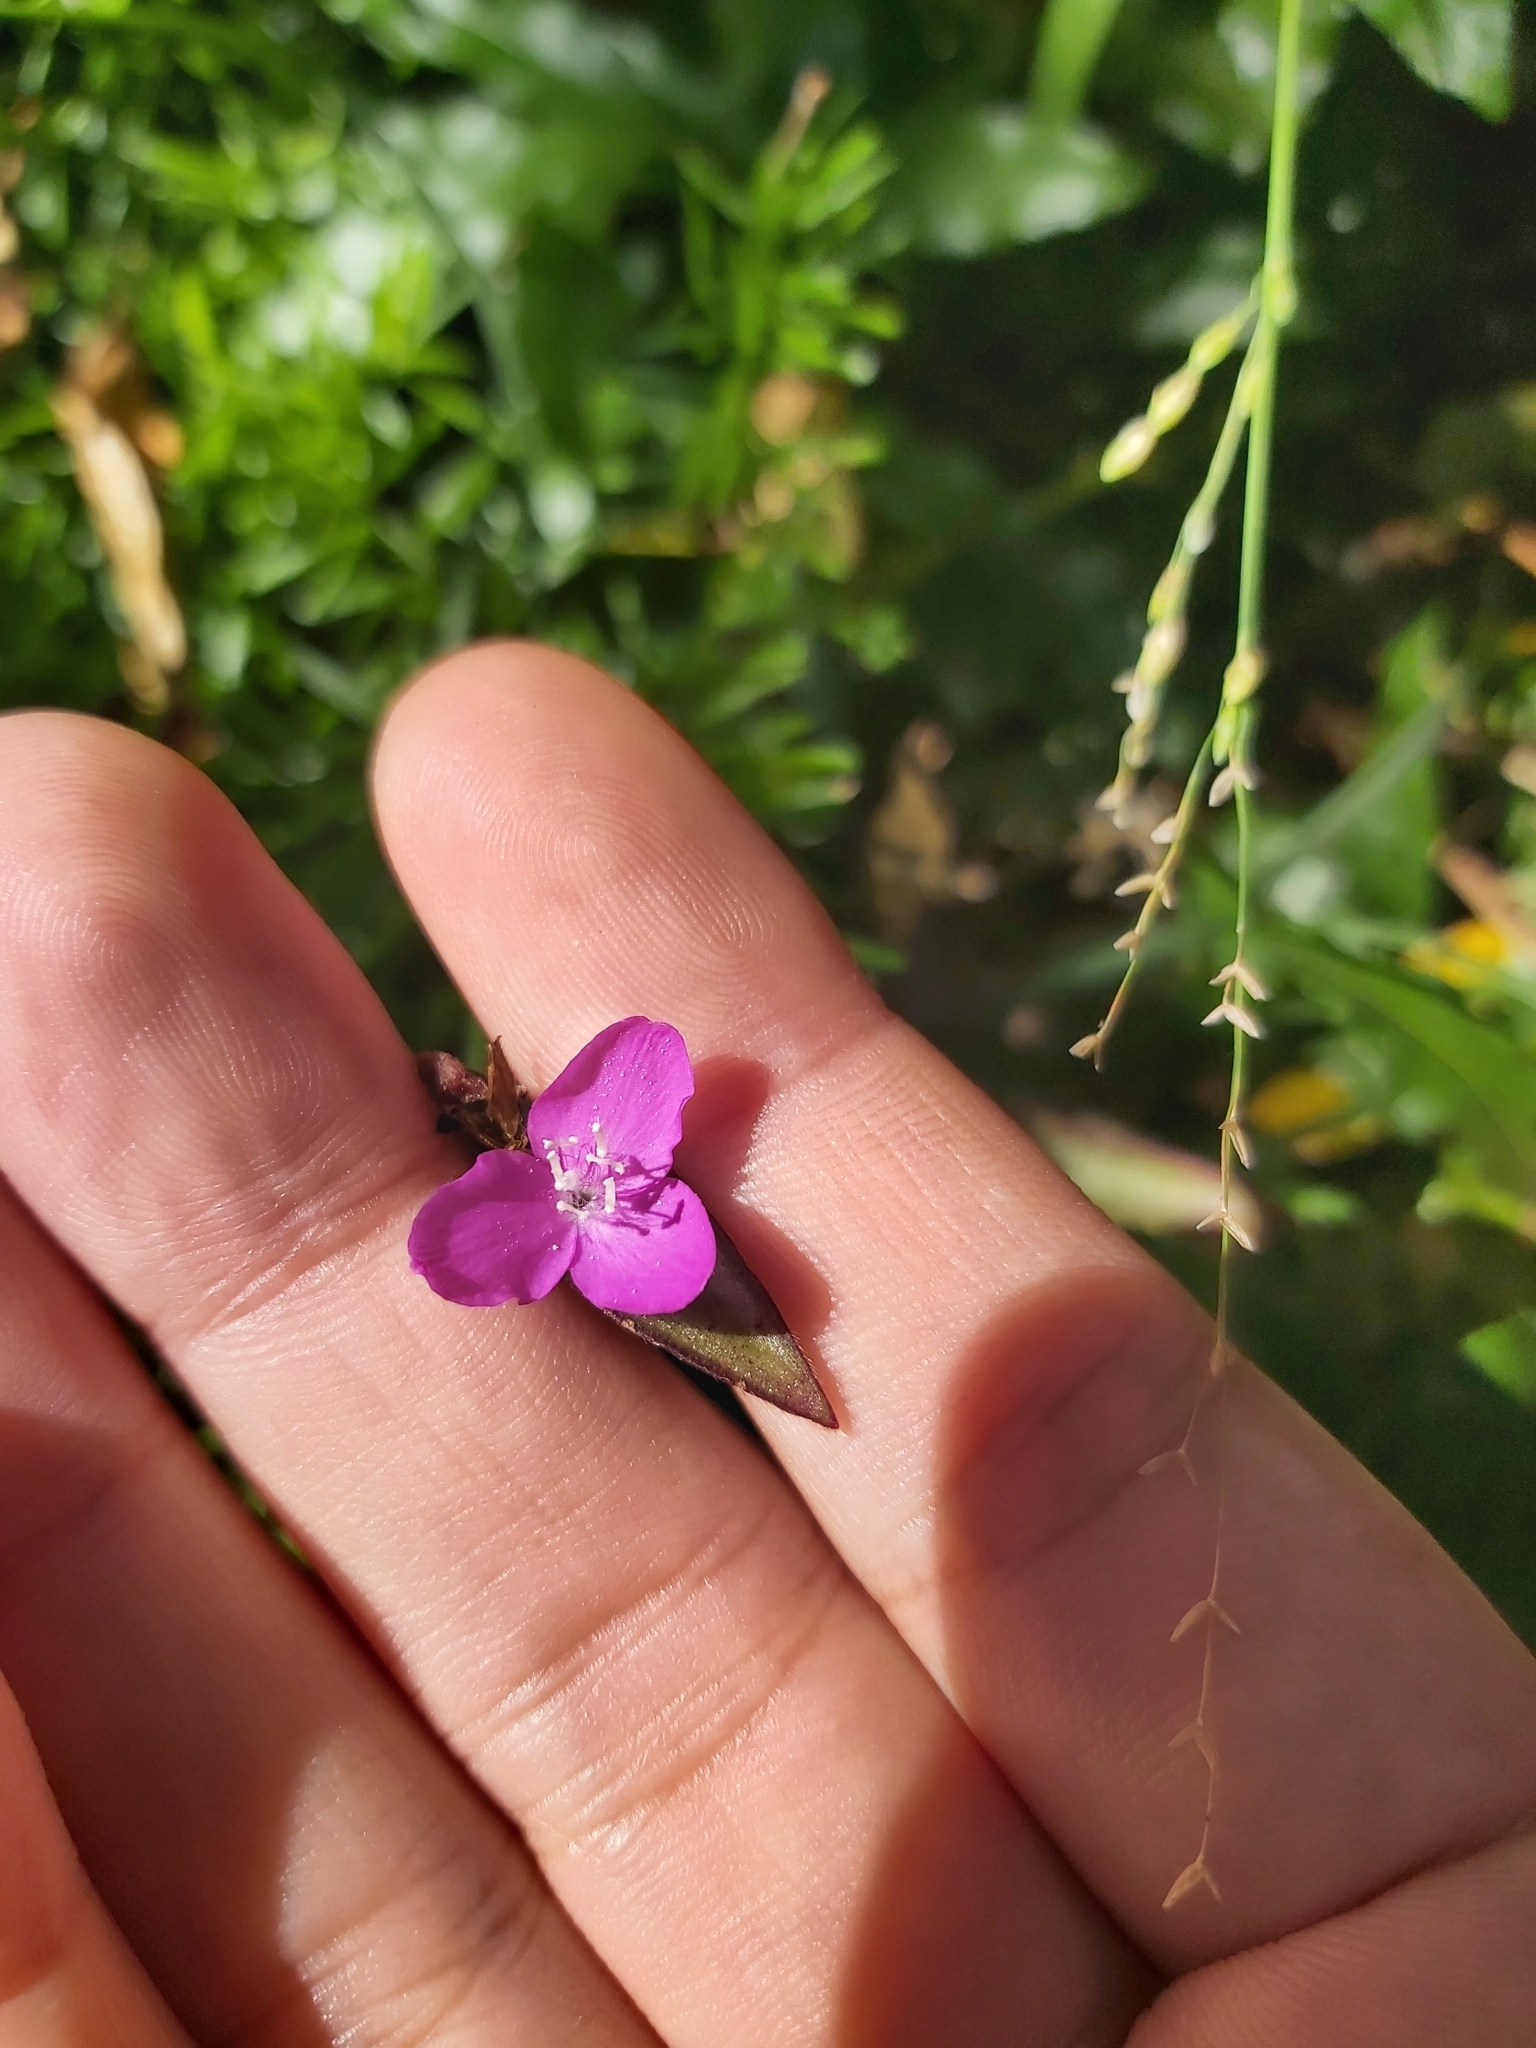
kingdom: Plantae
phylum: Tracheophyta
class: Liliopsida
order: Commelinales
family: Commelinaceae
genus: Tradescantia
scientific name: Tradescantia zebrina
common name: Inchplant
